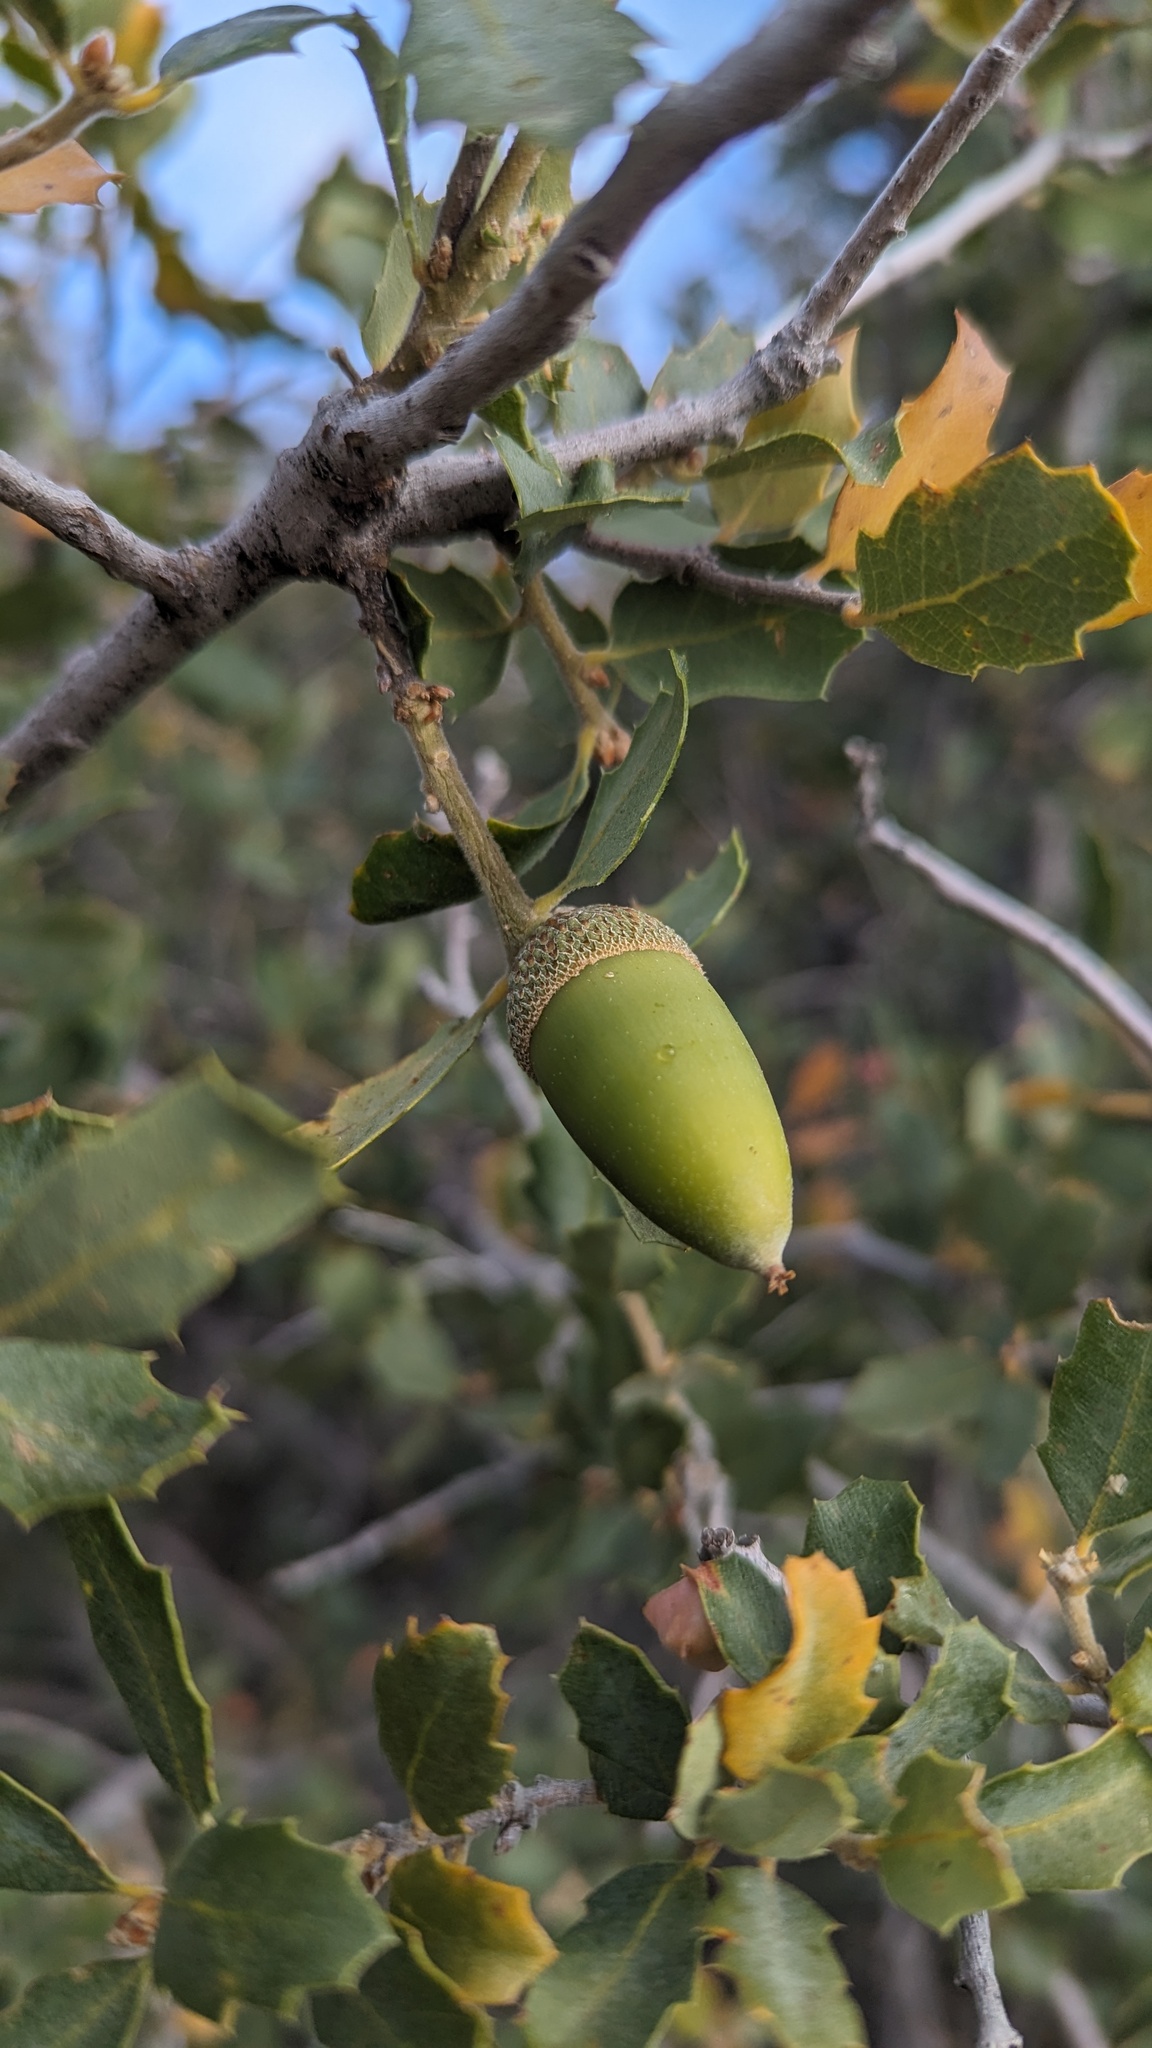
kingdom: Plantae
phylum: Tracheophyta
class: Magnoliopsida
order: Fagales
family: Fagaceae
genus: Quercus
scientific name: Quercus john-tuckeri
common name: Tucker's oak
